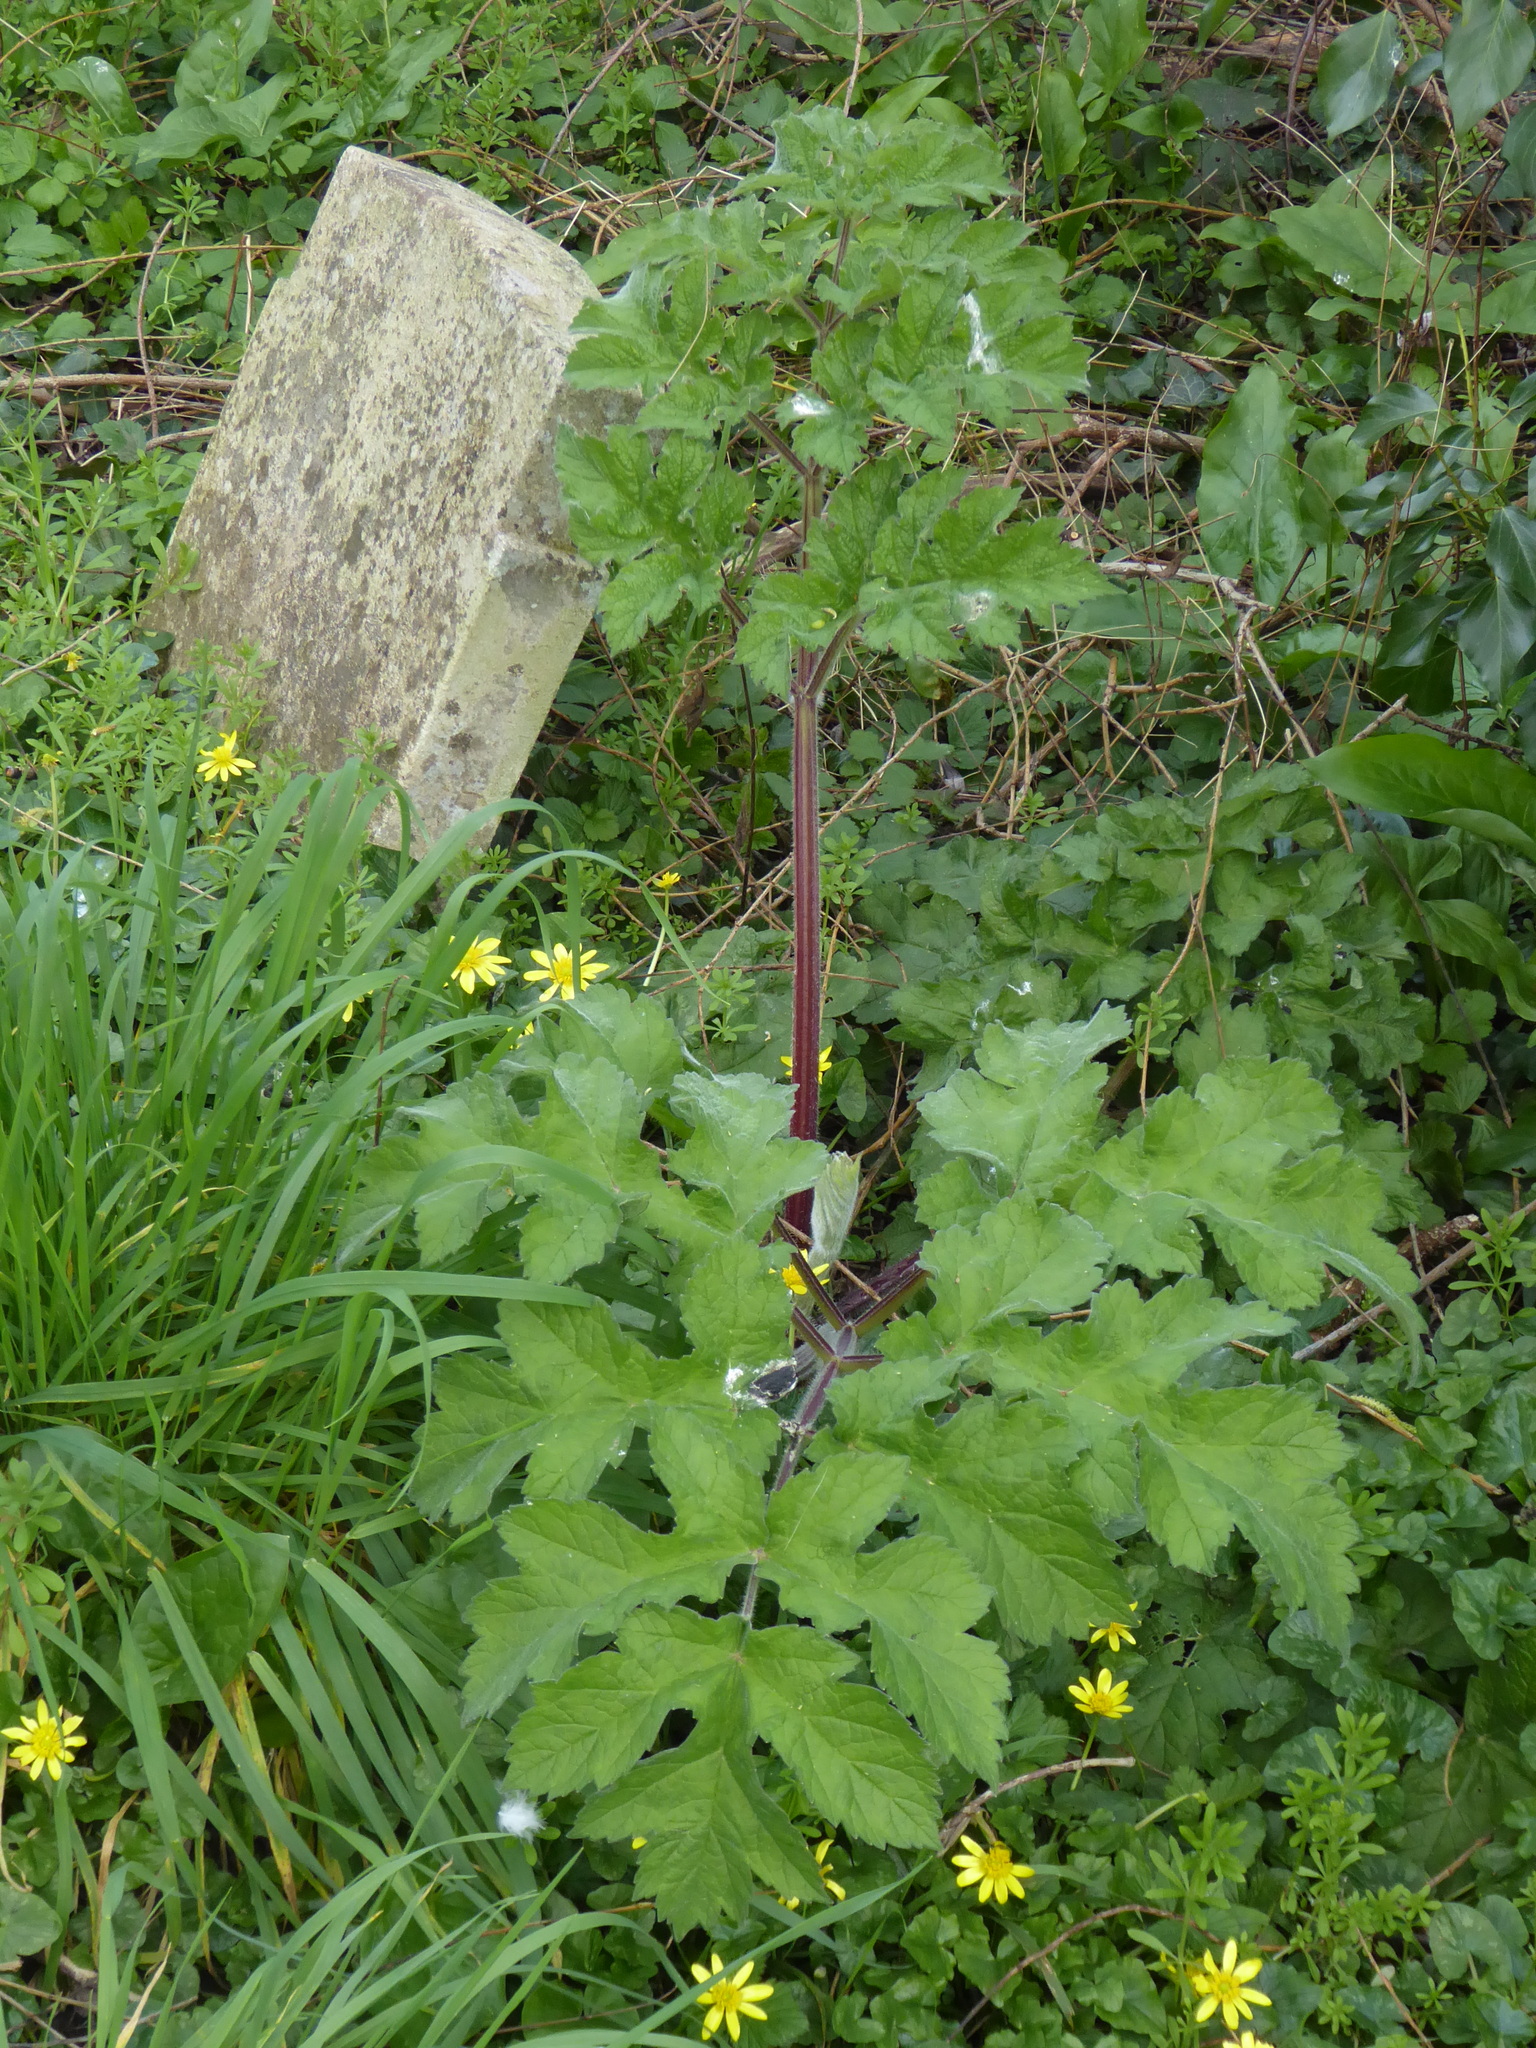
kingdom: Plantae
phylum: Tracheophyta
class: Magnoliopsida
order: Apiales
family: Apiaceae
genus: Heracleum
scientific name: Heracleum sphondylium
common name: Hogweed
